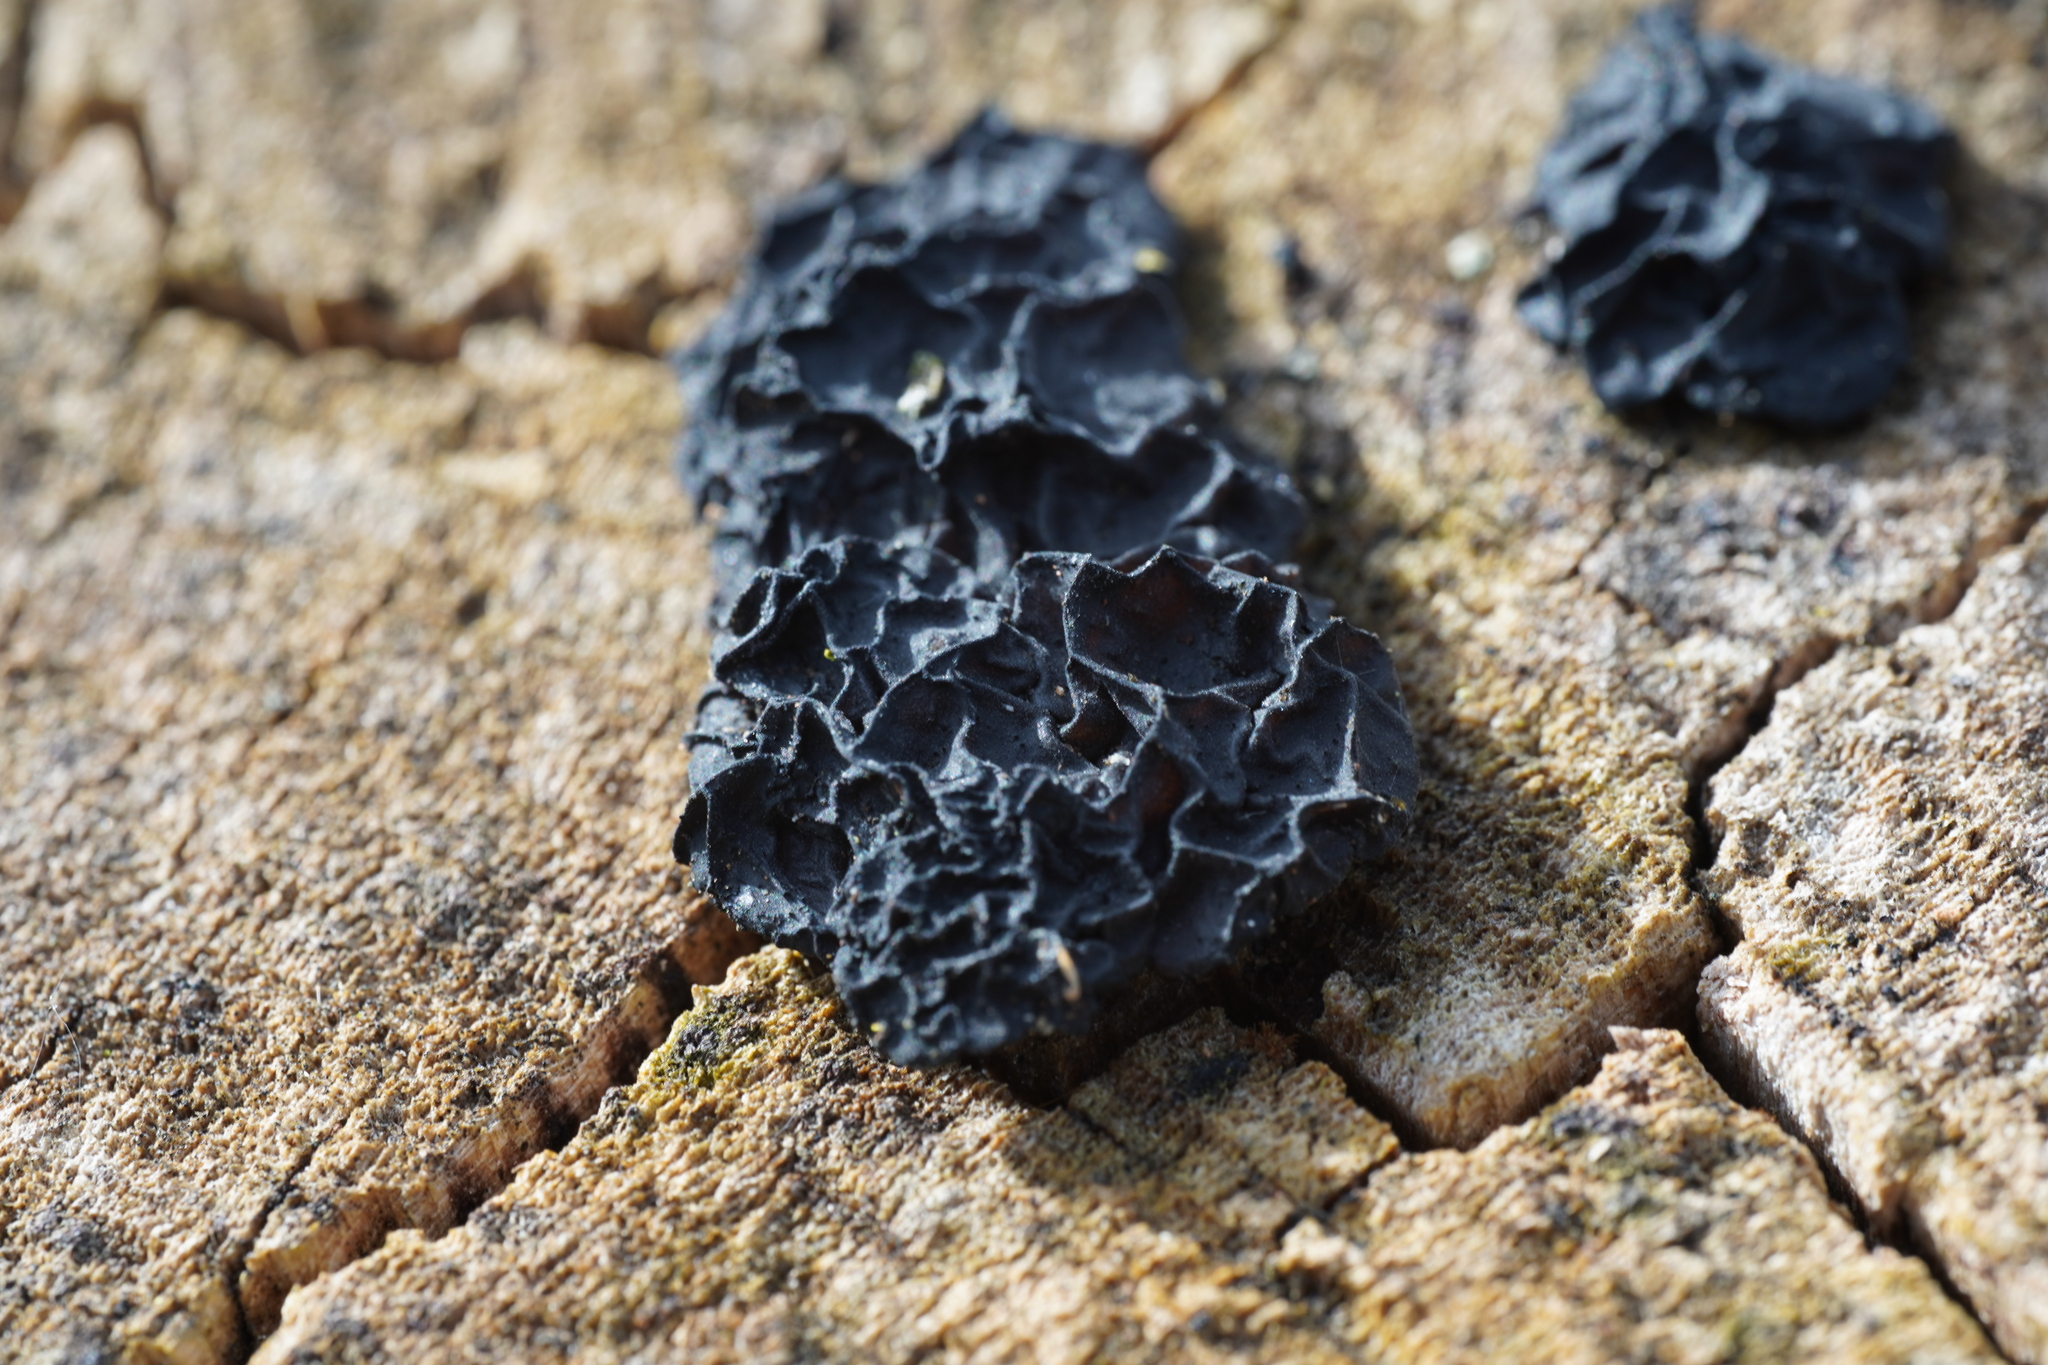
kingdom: Fungi
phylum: Basidiomycota
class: Agaricomycetes
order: Auriculariales
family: Auriculariaceae
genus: Exidia
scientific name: Exidia nigricans
